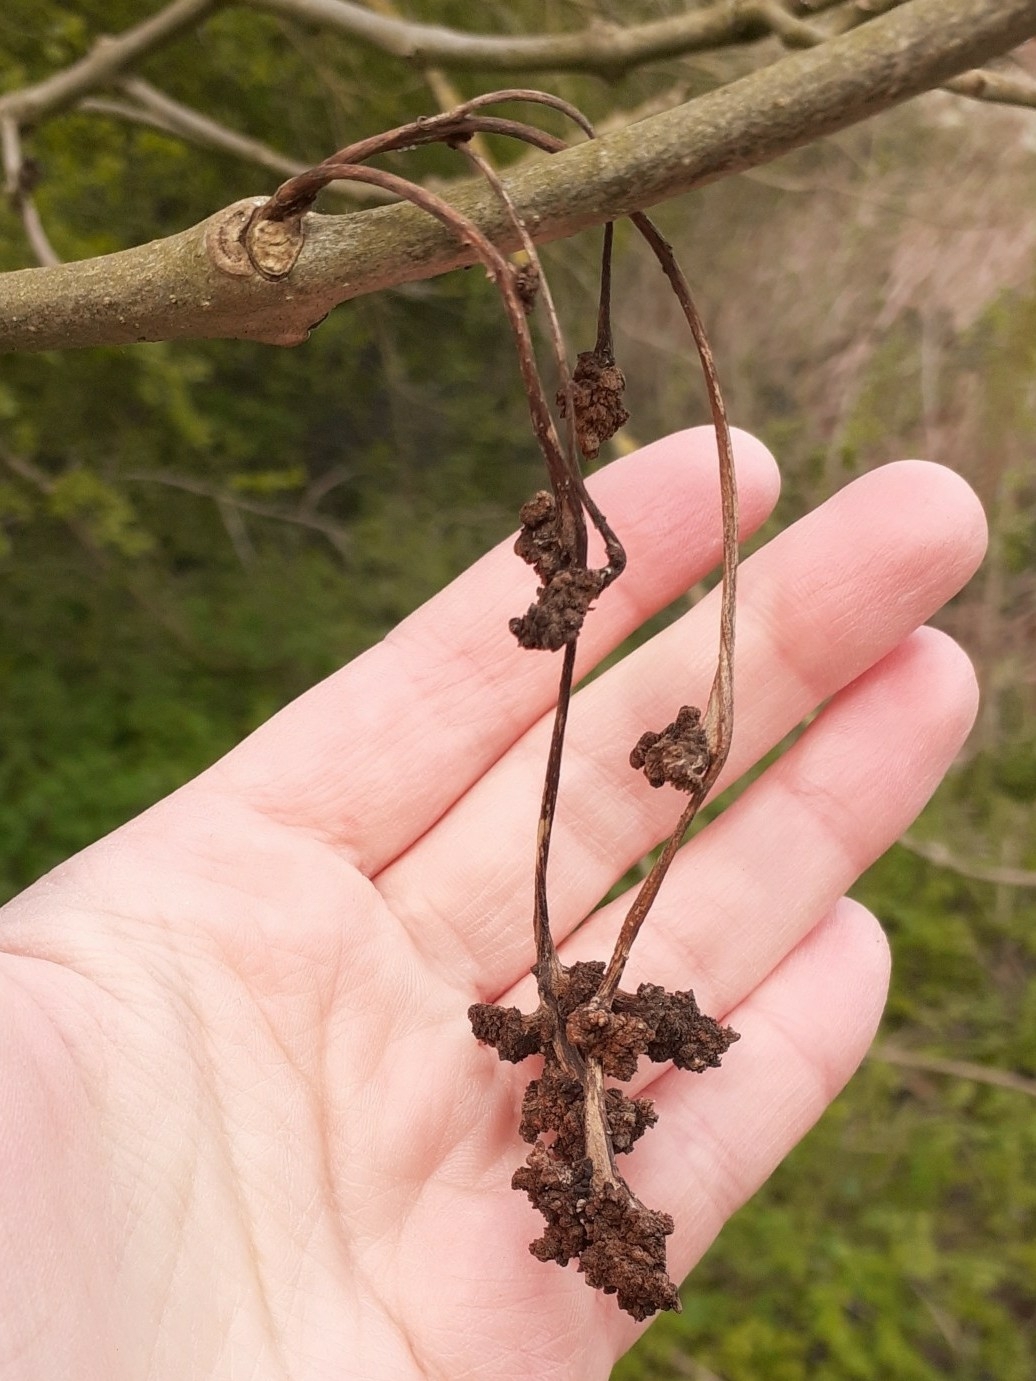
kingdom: Animalia
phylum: Arthropoda
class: Arachnida
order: Trombidiformes
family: Eriophyidae
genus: Aceria
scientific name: Aceria fraxinivora
